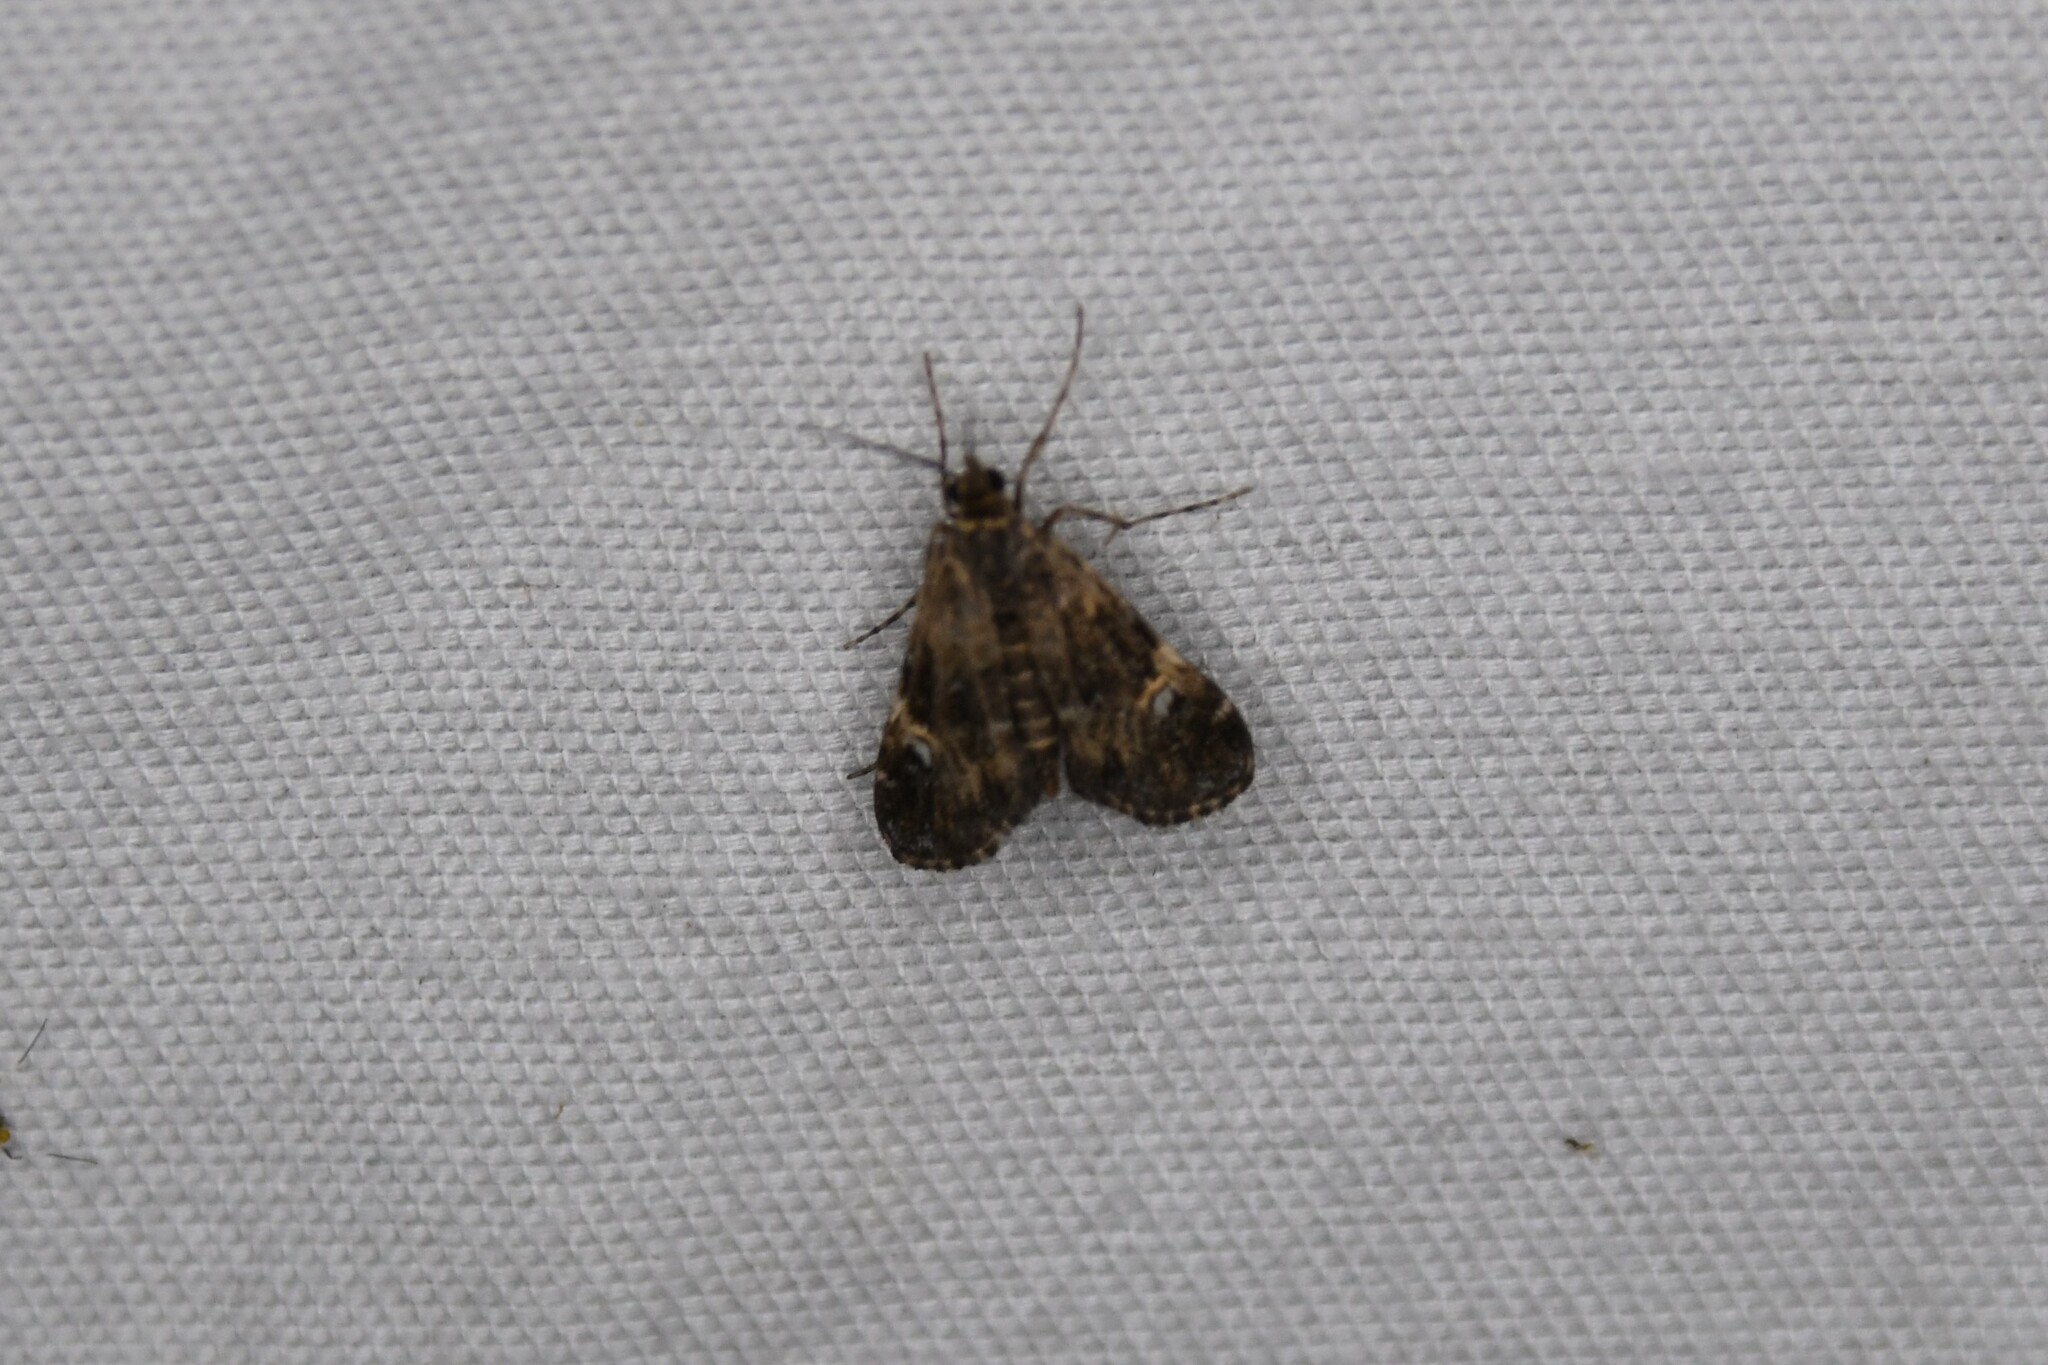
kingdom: Animalia
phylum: Arthropoda
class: Insecta
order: Lepidoptera
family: Crambidae
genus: Elophila
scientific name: Elophila obliteralis
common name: Waterlily leafcutter moth
